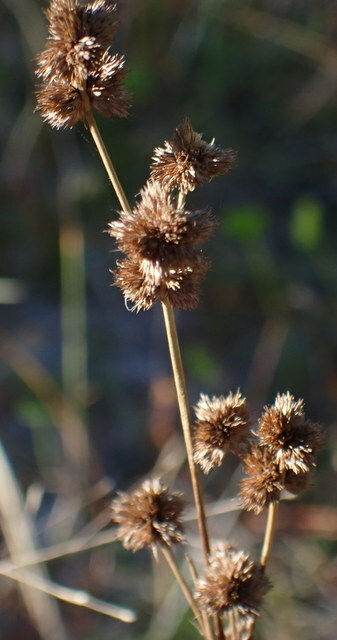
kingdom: Plantae
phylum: Tracheophyta
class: Liliopsida
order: Poales
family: Juncaceae
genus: Juncus
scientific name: Juncus scirpoides
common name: Needlepod rush
